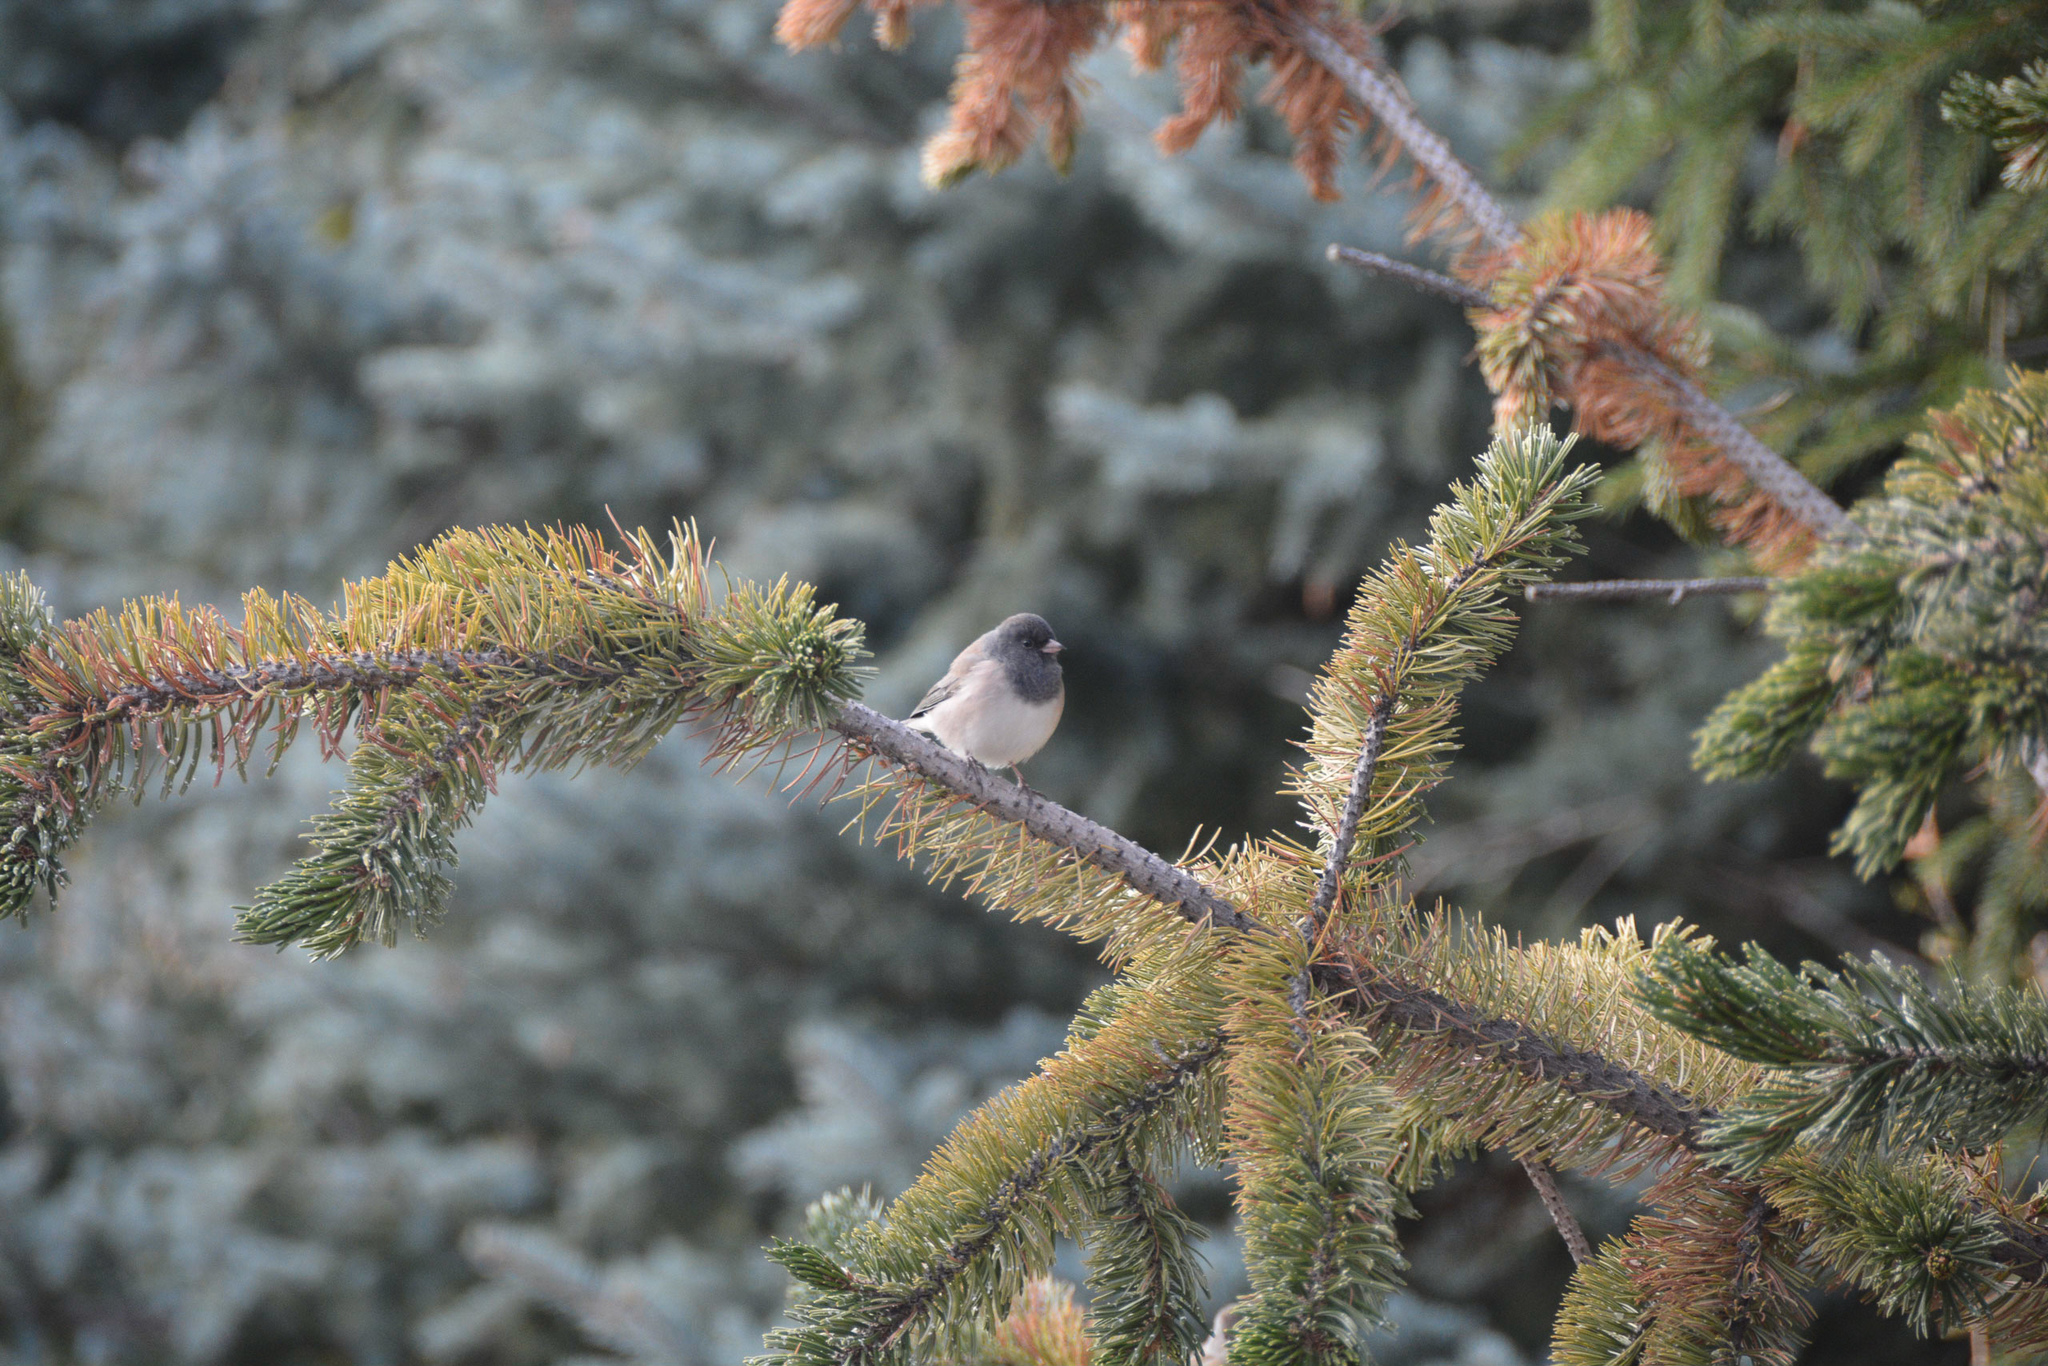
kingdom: Animalia
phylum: Chordata
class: Aves
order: Passeriformes
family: Passerellidae
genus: Junco
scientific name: Junco hyemalis
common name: Dark-eyed junco
